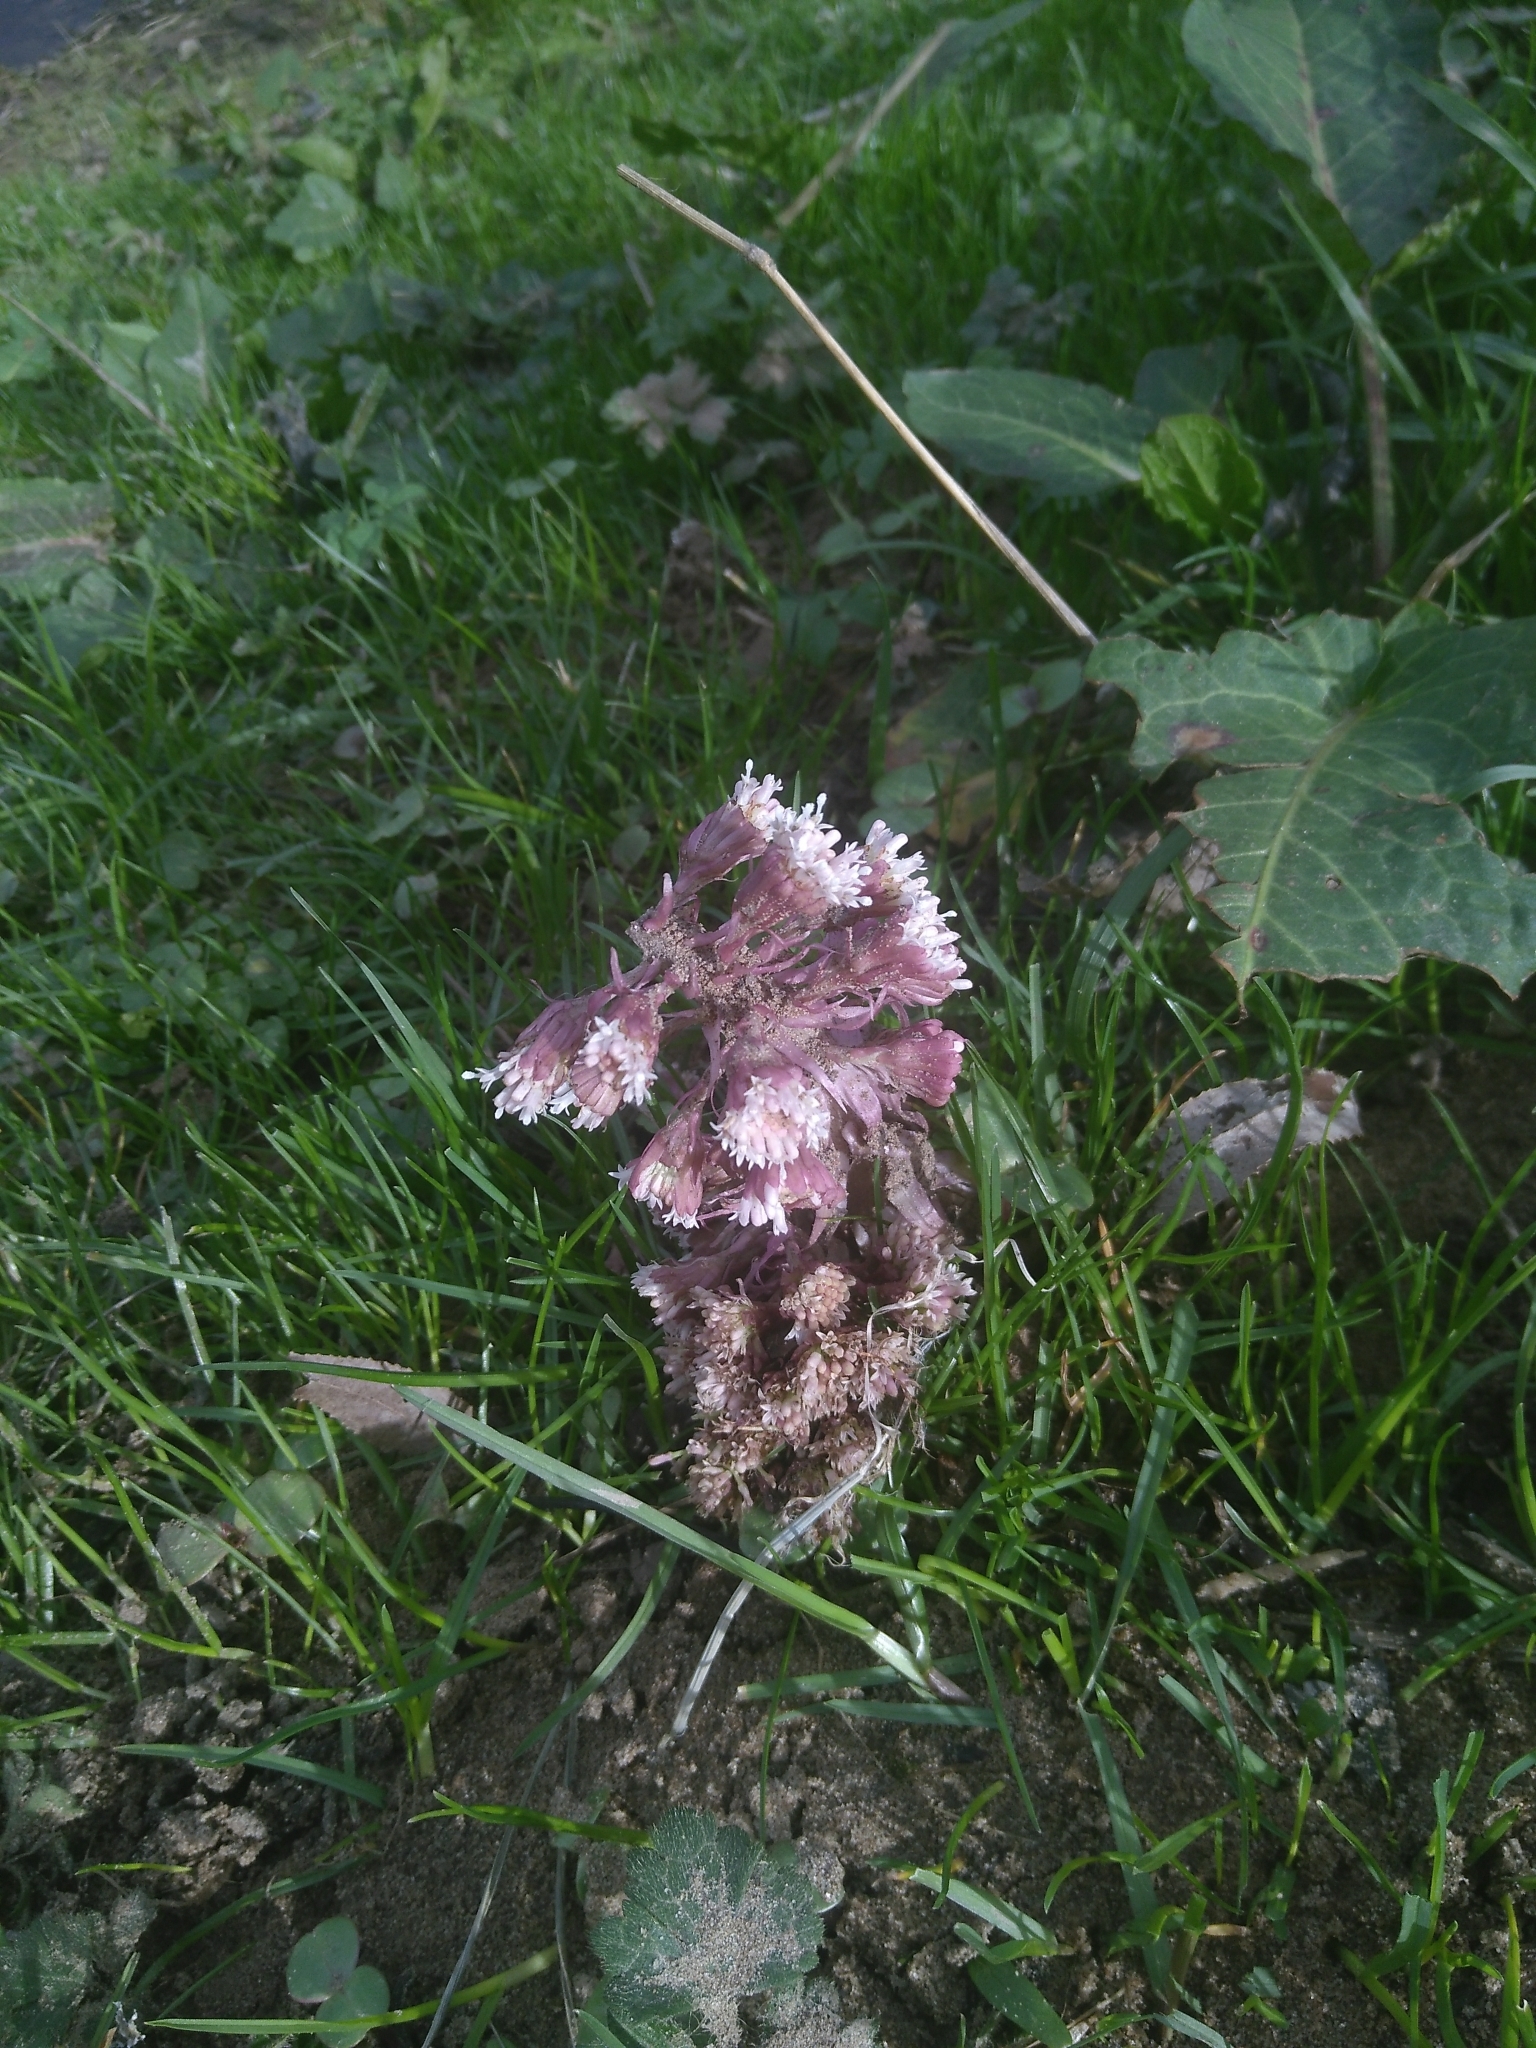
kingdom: Plantae
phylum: Tracheophyta
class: Magnoliopsida
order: Asterales
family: Asteraceae
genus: Petasites
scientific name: Petasites hybridus
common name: Butterbur
